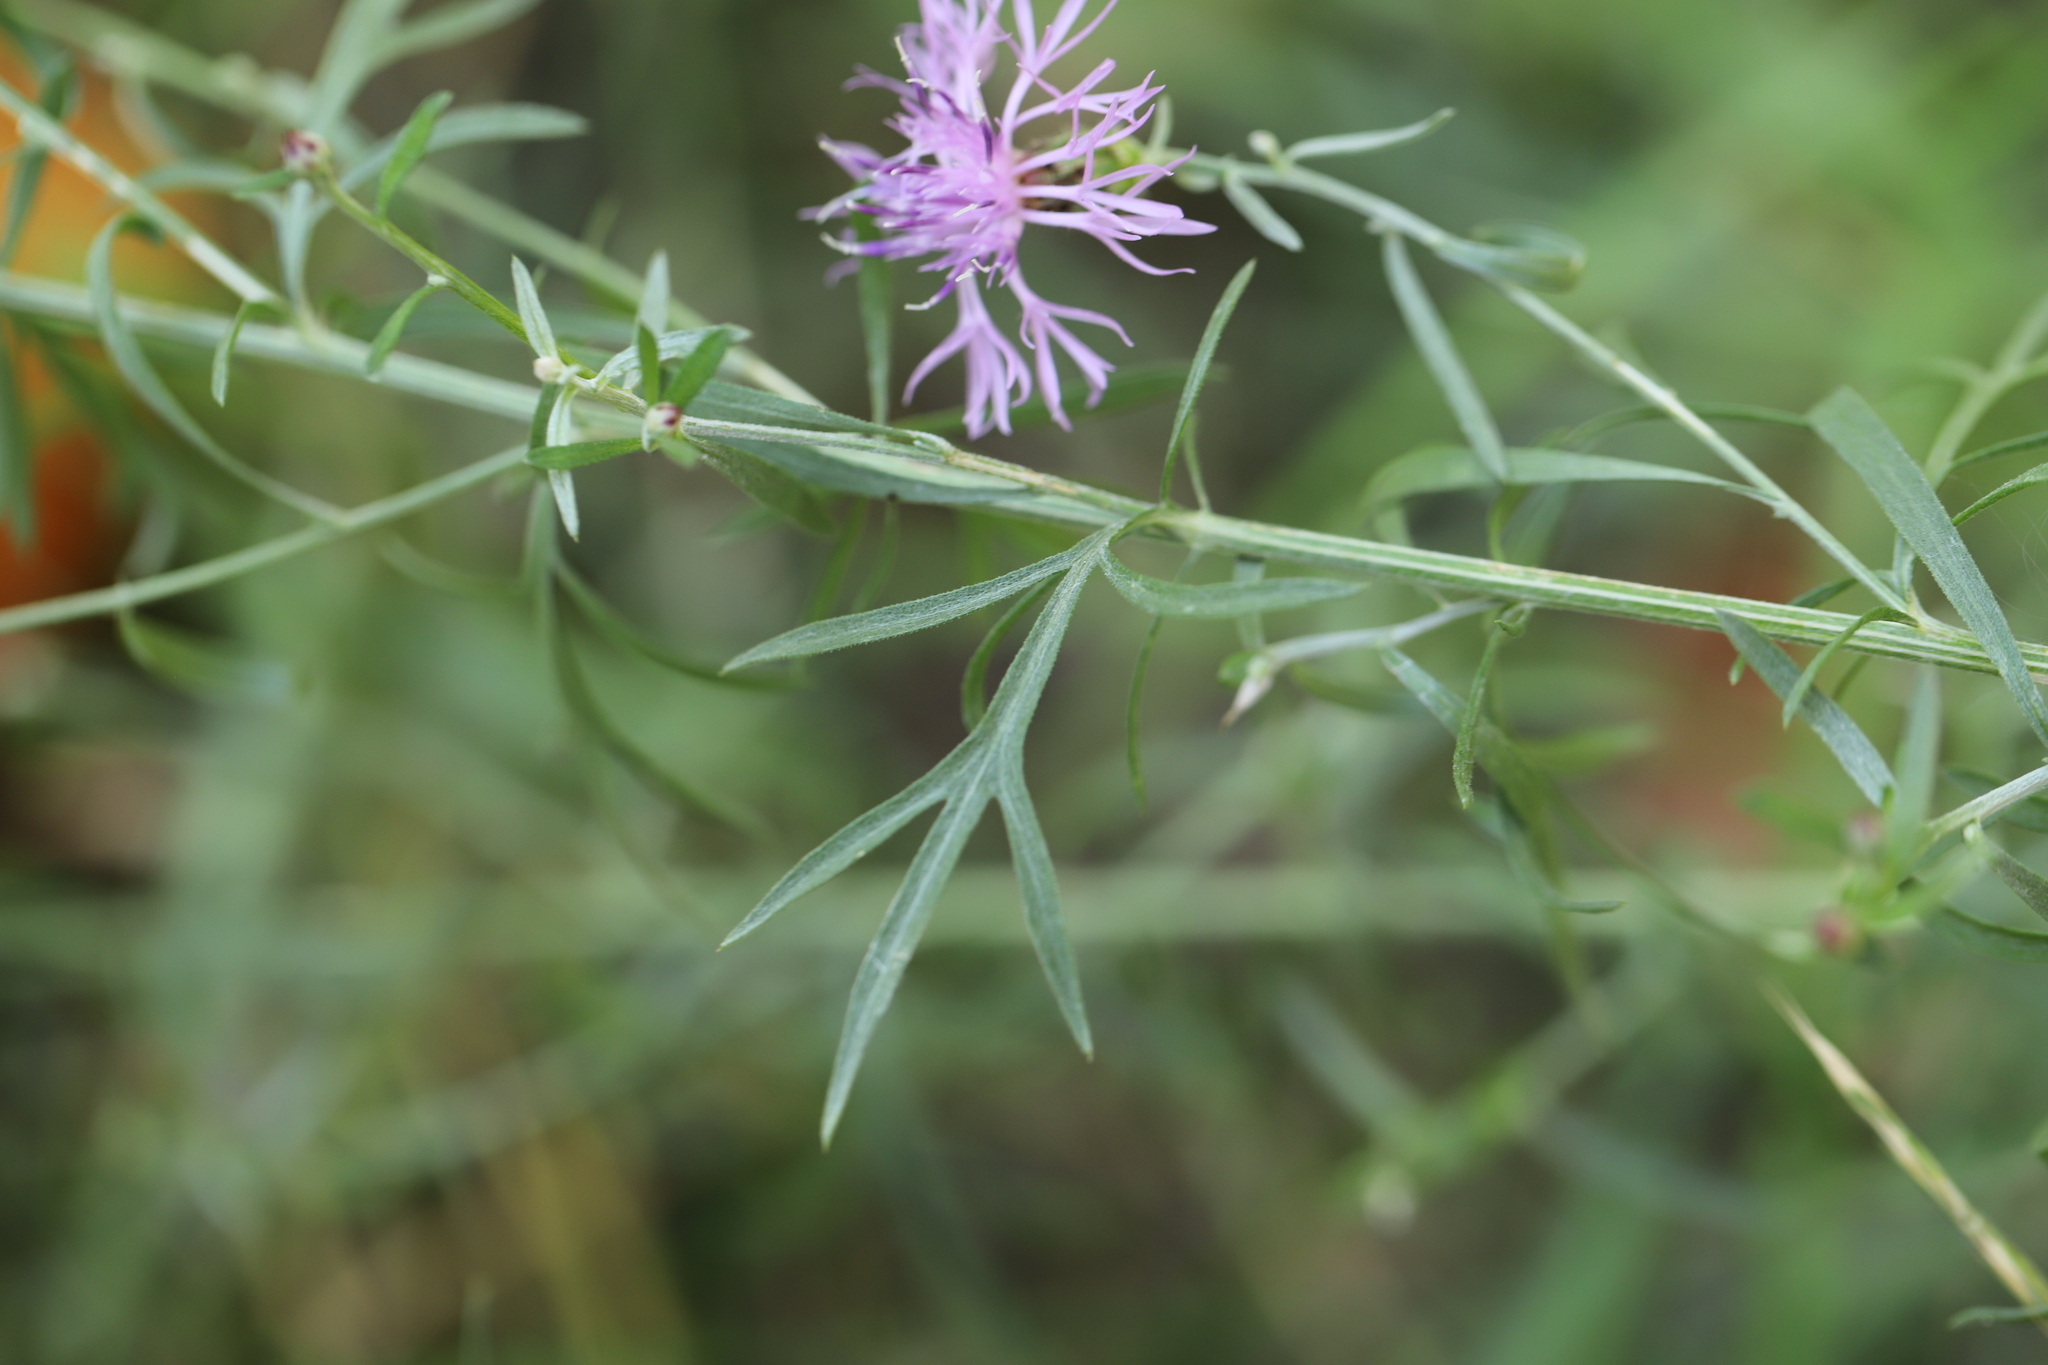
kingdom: Plantae
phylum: Tracheophyta
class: Magnoliopsida
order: Asterales
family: Asteraceae
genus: Centaurea
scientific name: Centaurea stoebe
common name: Spotted knapweed
